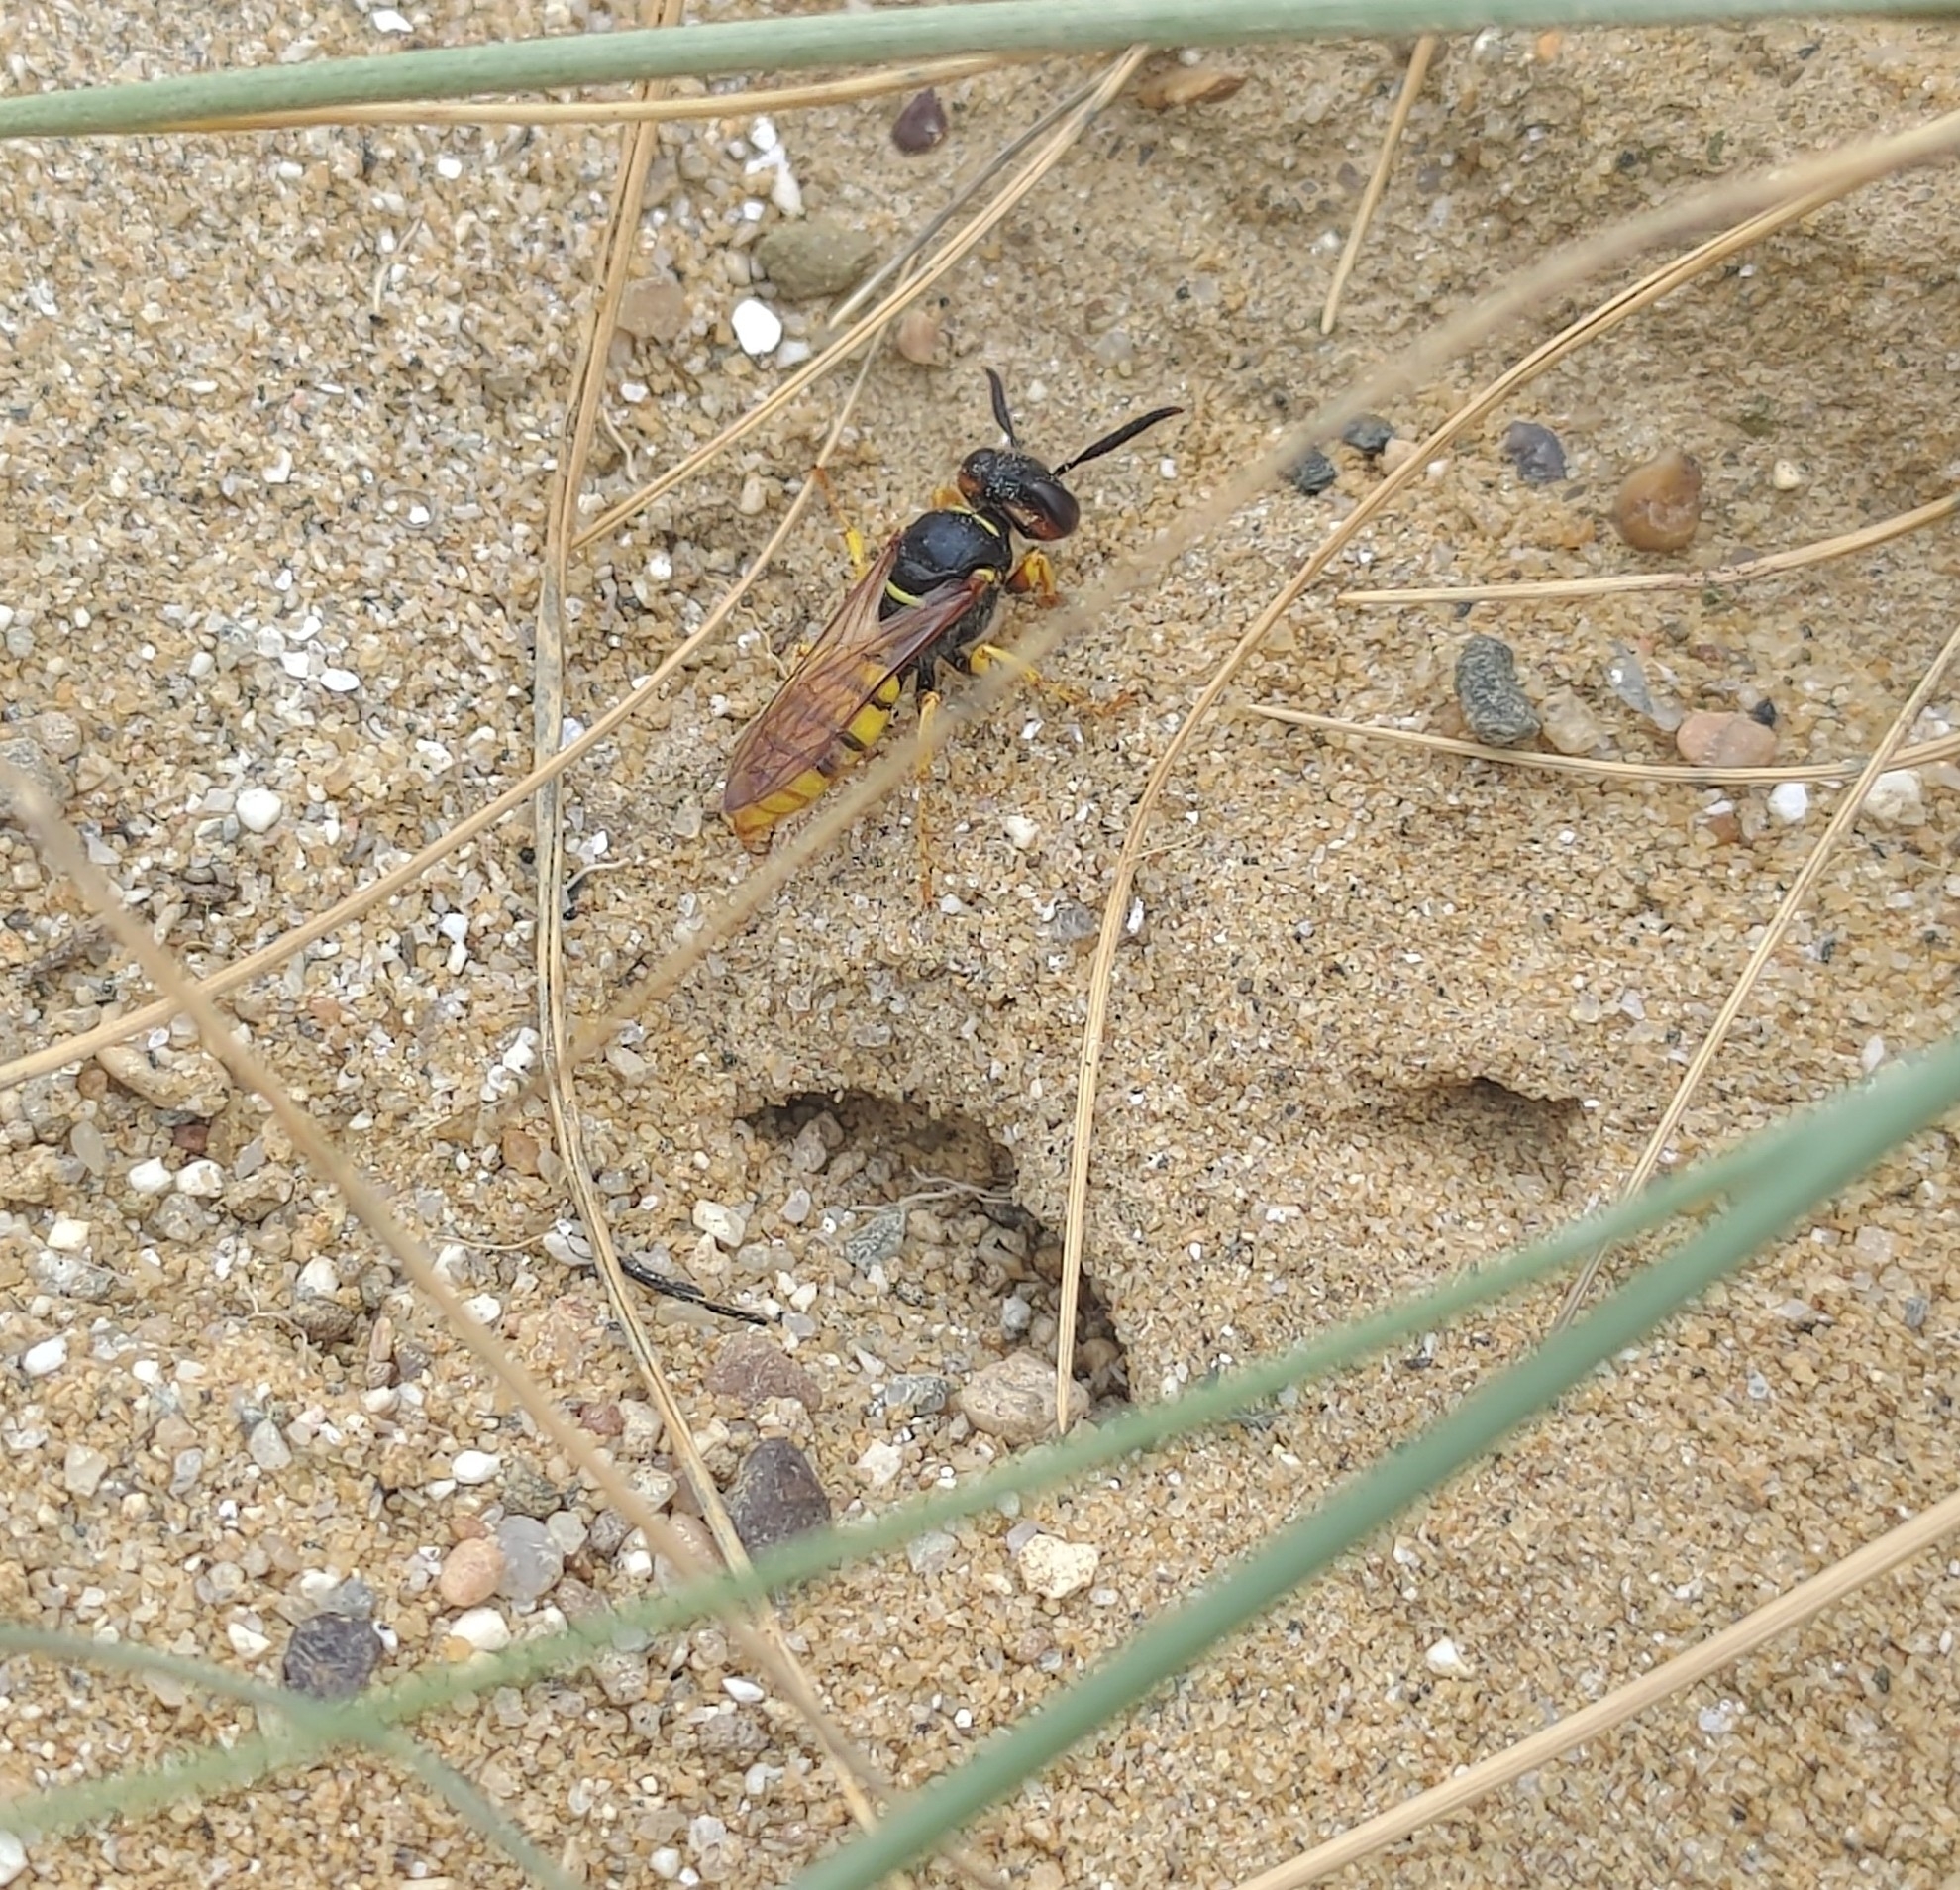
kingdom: Animalia
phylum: Arthropoda
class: Insecta
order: Hymenoptera
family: Crabronidae
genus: Philanthus
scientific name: Philanthus triangulum
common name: Bee wolf
